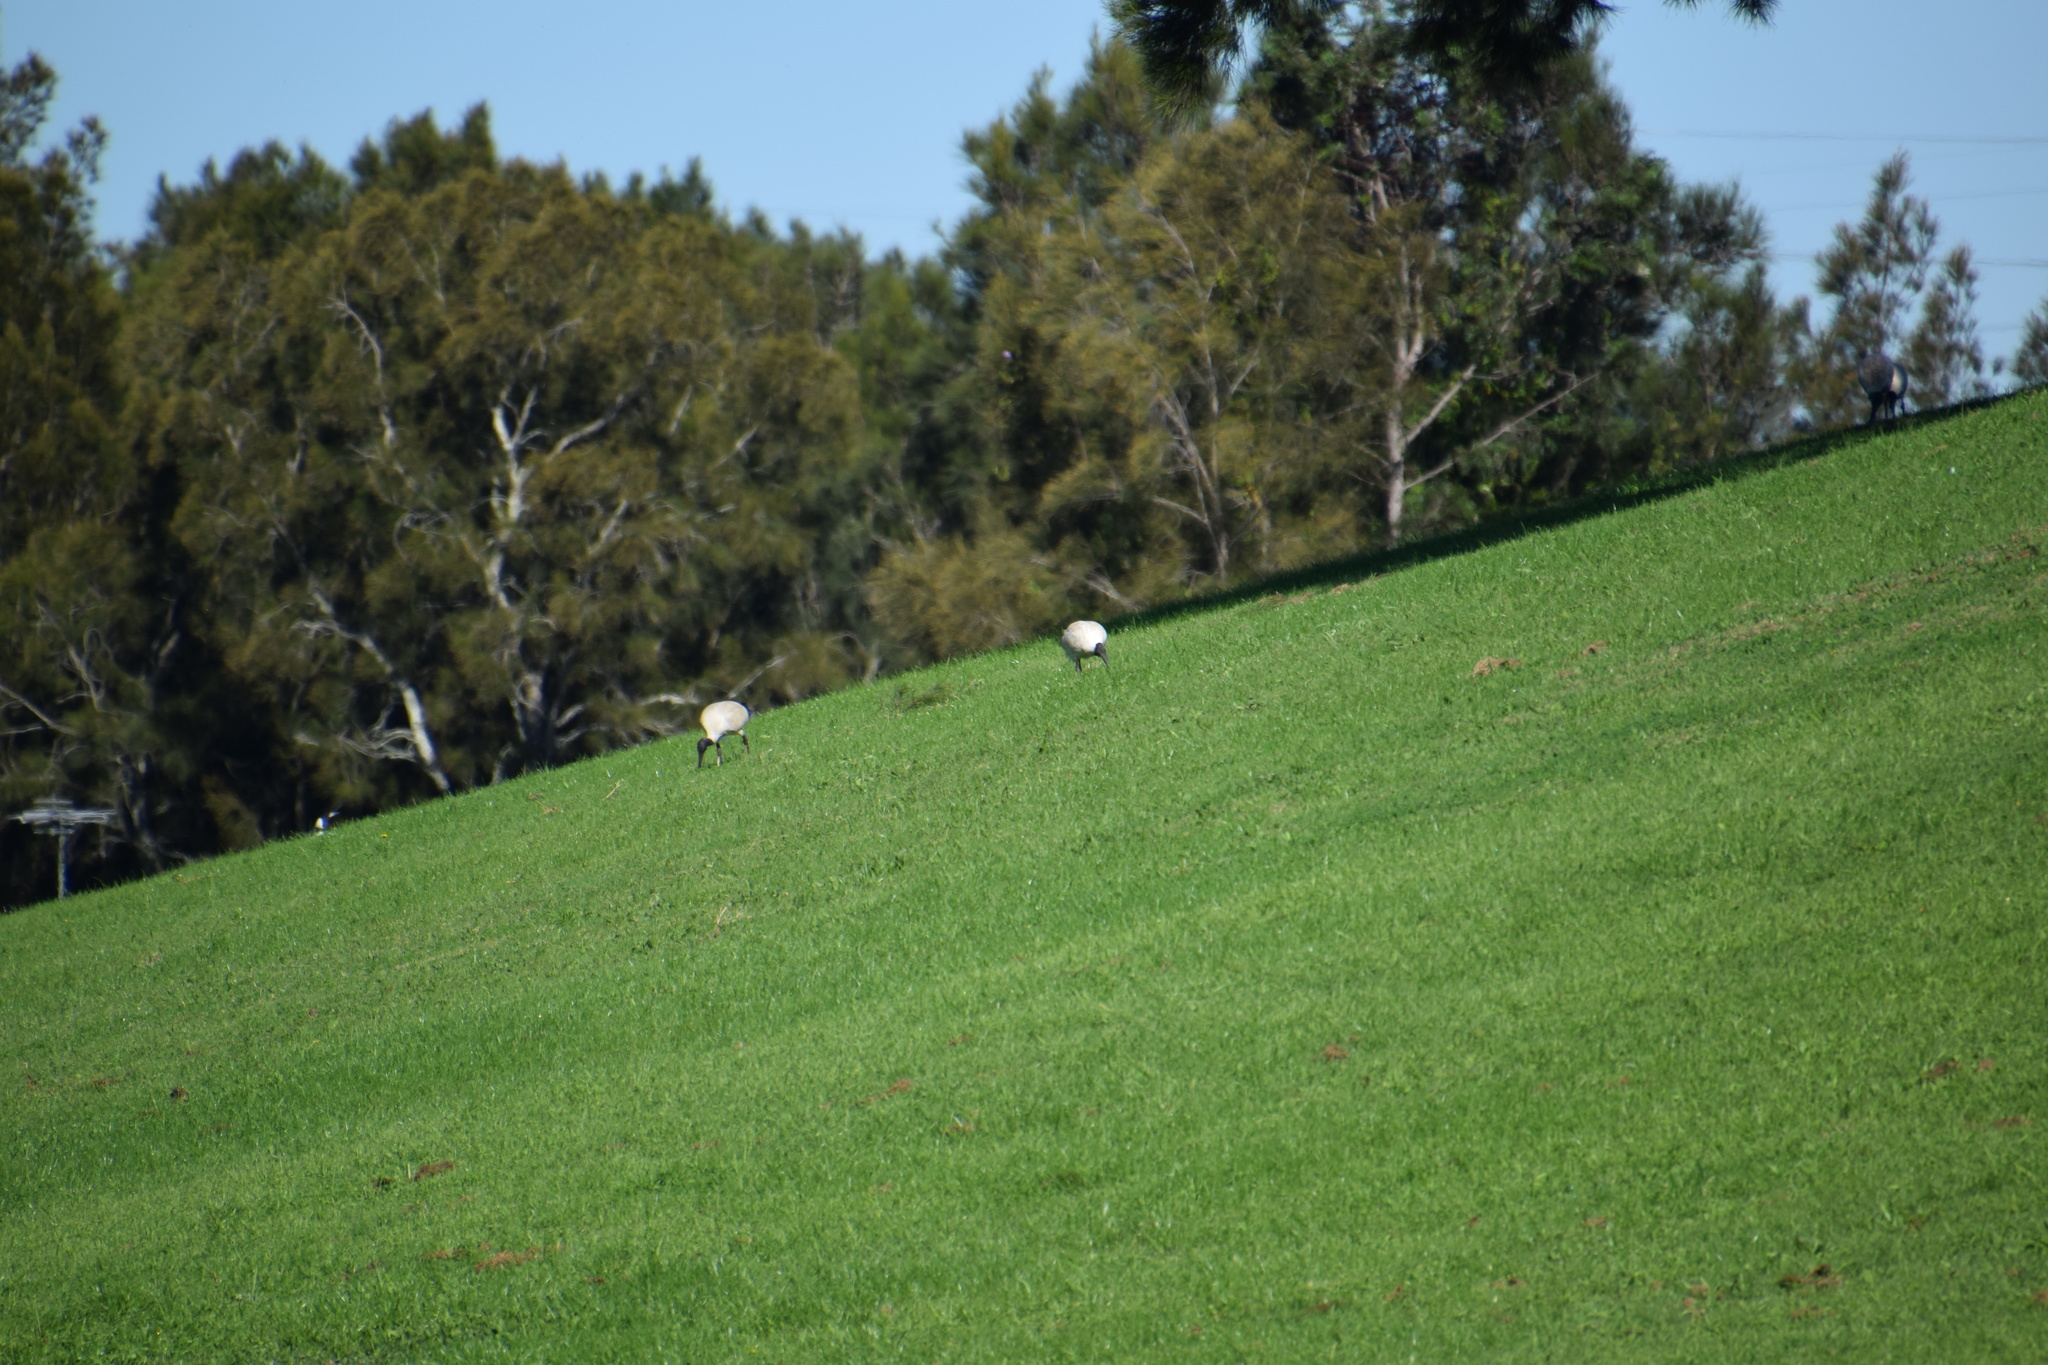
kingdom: Animalia
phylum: Chordata
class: Aves
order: Pelecaniformes
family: Threskiornithidae
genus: Threskiornis
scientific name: Threskiornis molucca
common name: Australian white ibis
